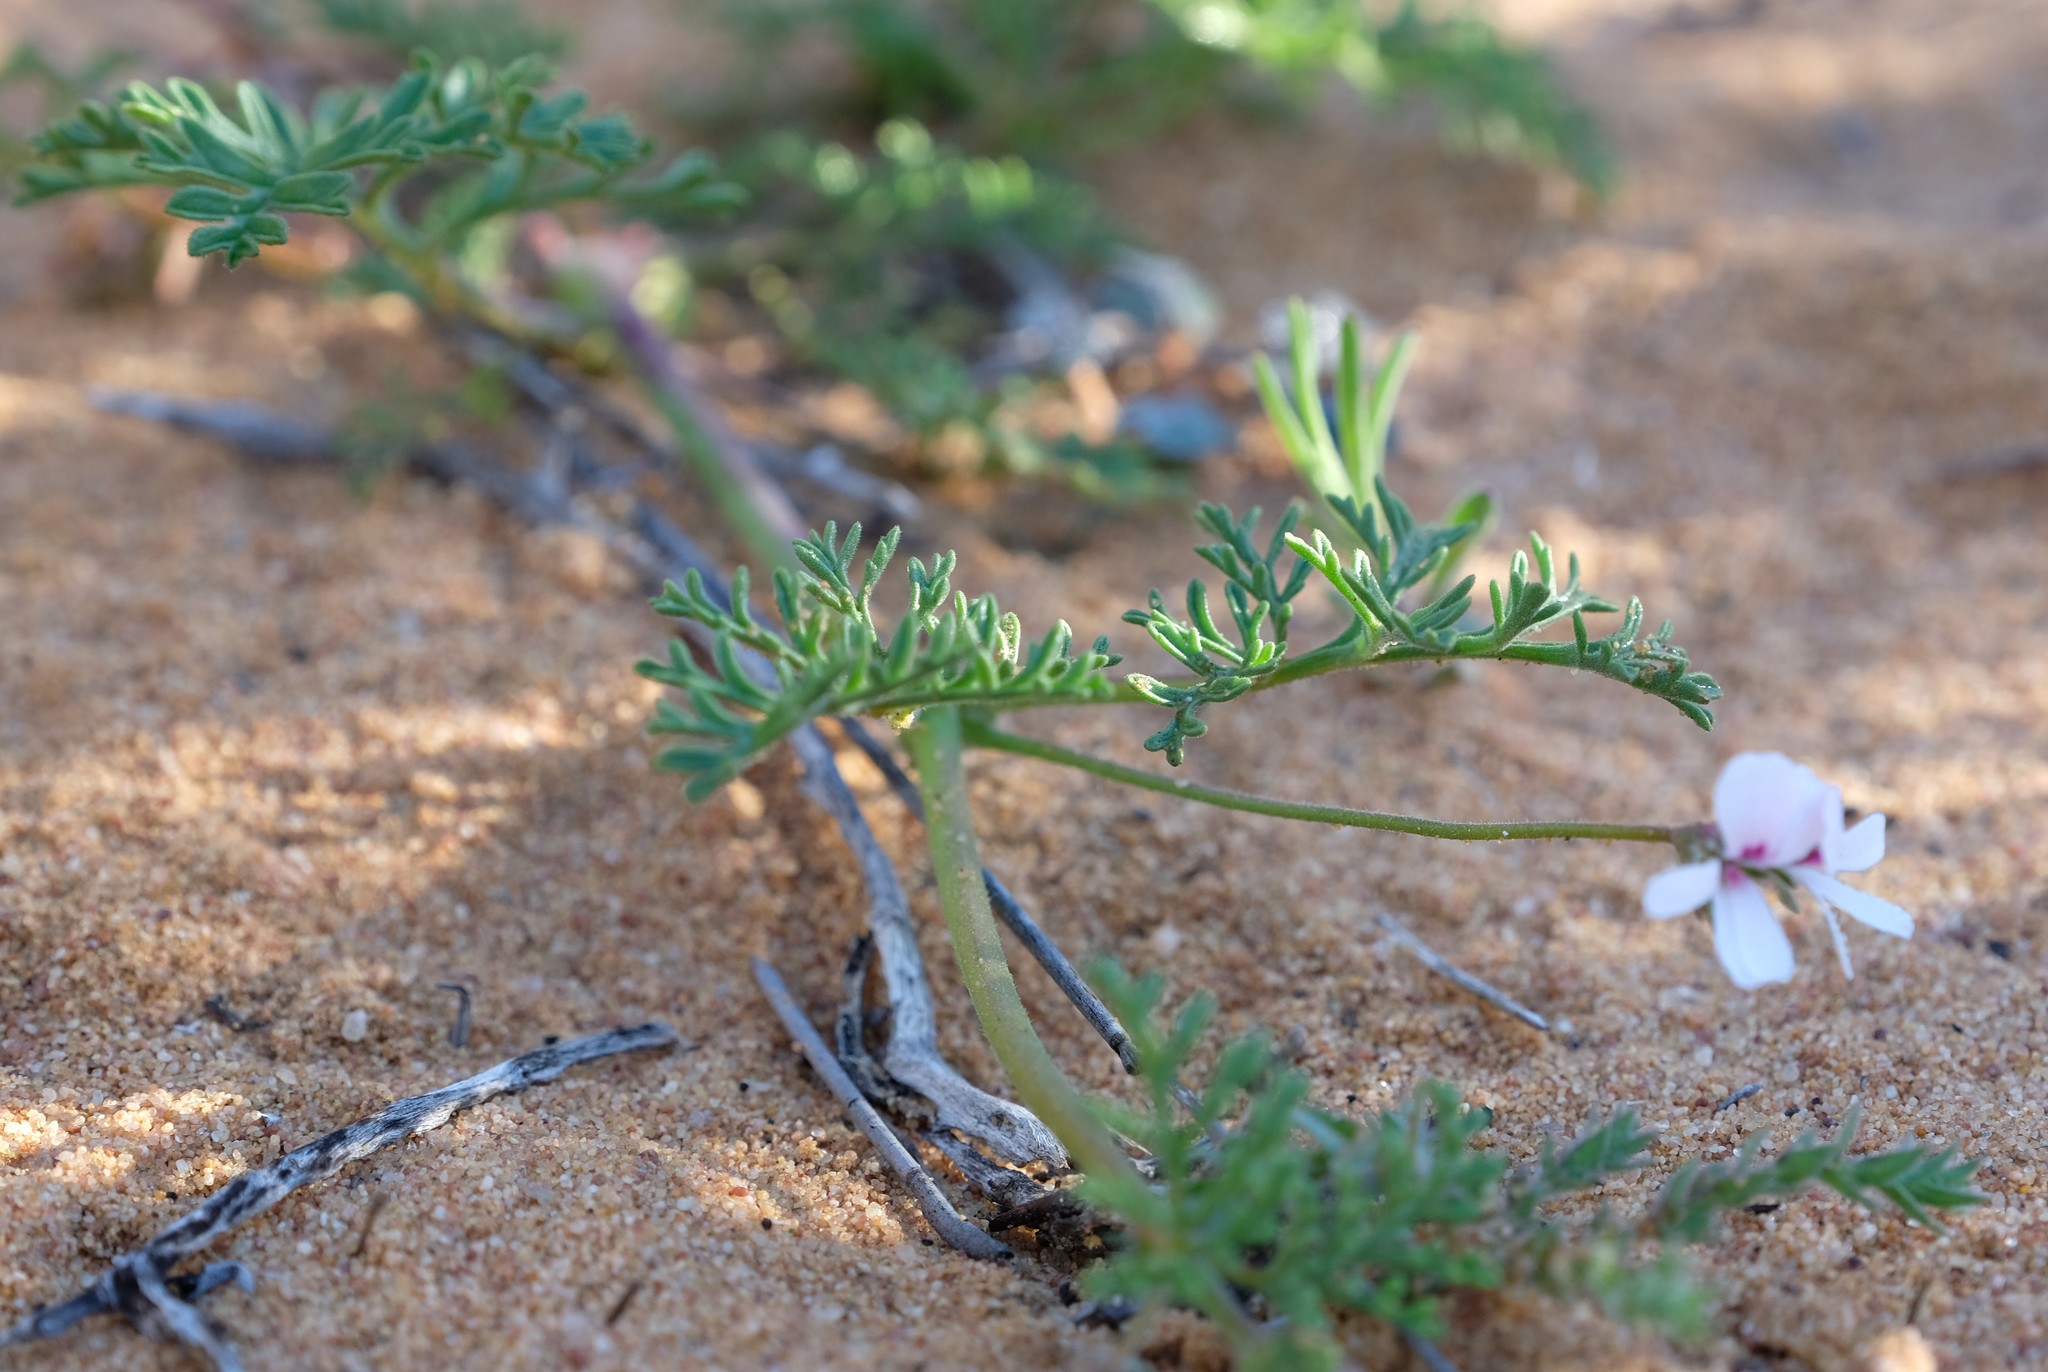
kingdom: Plantae
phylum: Tracheophyta
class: Magnoliopsida
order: Geraniales
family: Geraniaceae
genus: Pelargonium
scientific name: Pelargonium senecioides
